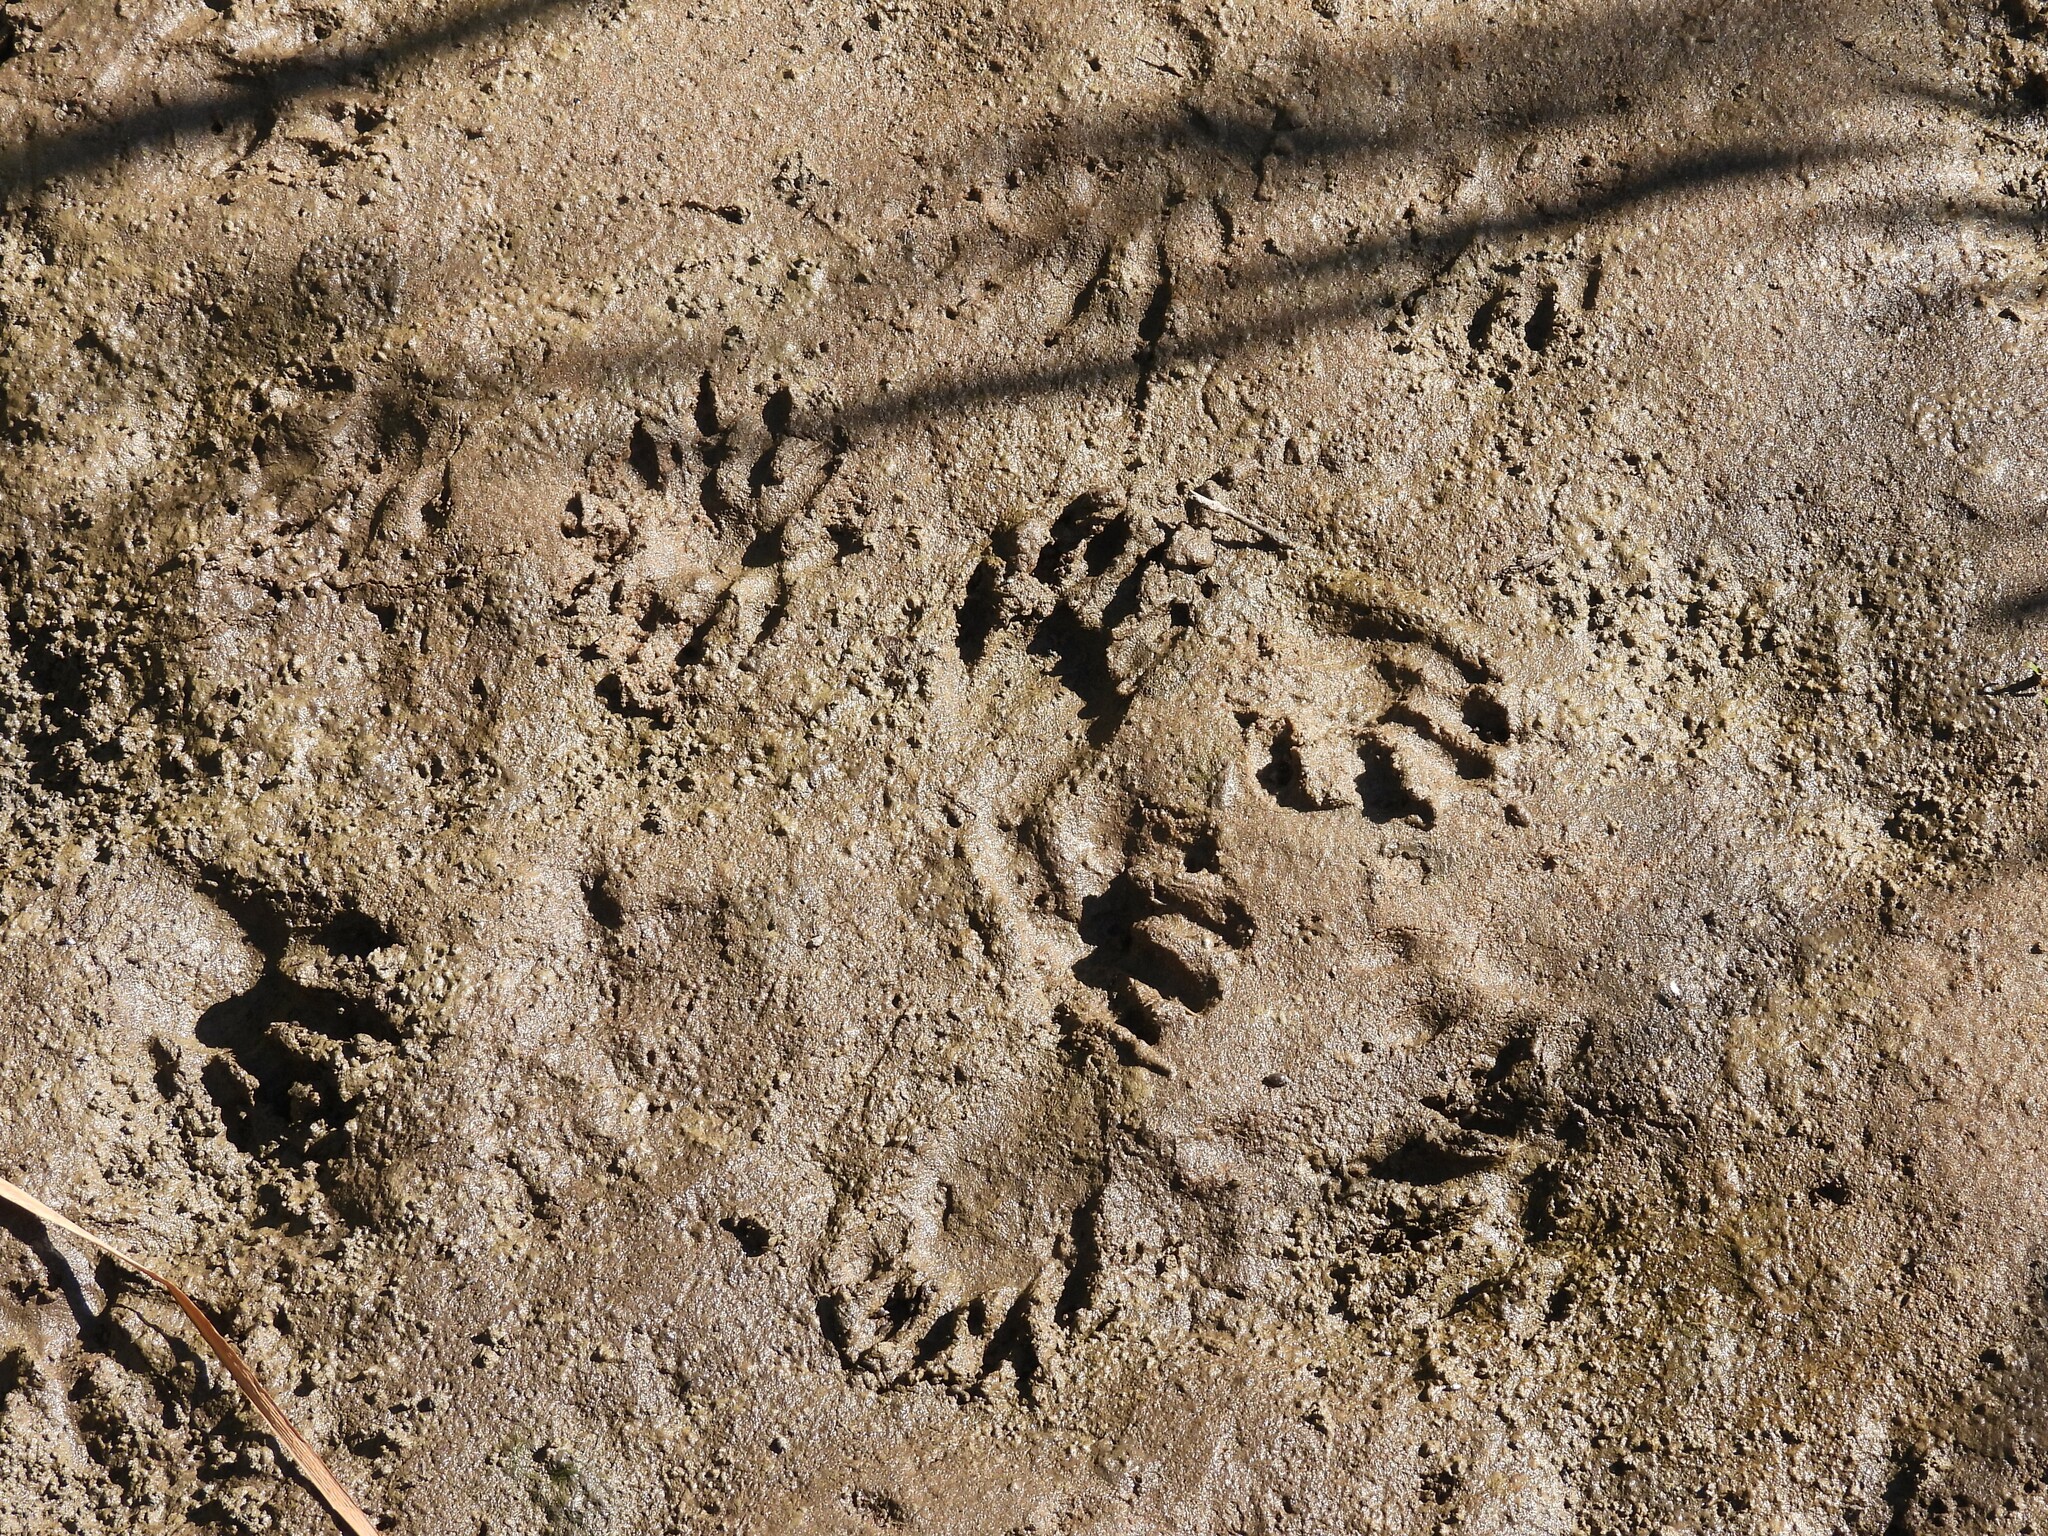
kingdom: Animalia
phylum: Chordata
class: Mammalia
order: Carnivora
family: Procyonidae
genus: Procyon
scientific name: Procyon lotor
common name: Raccoon
